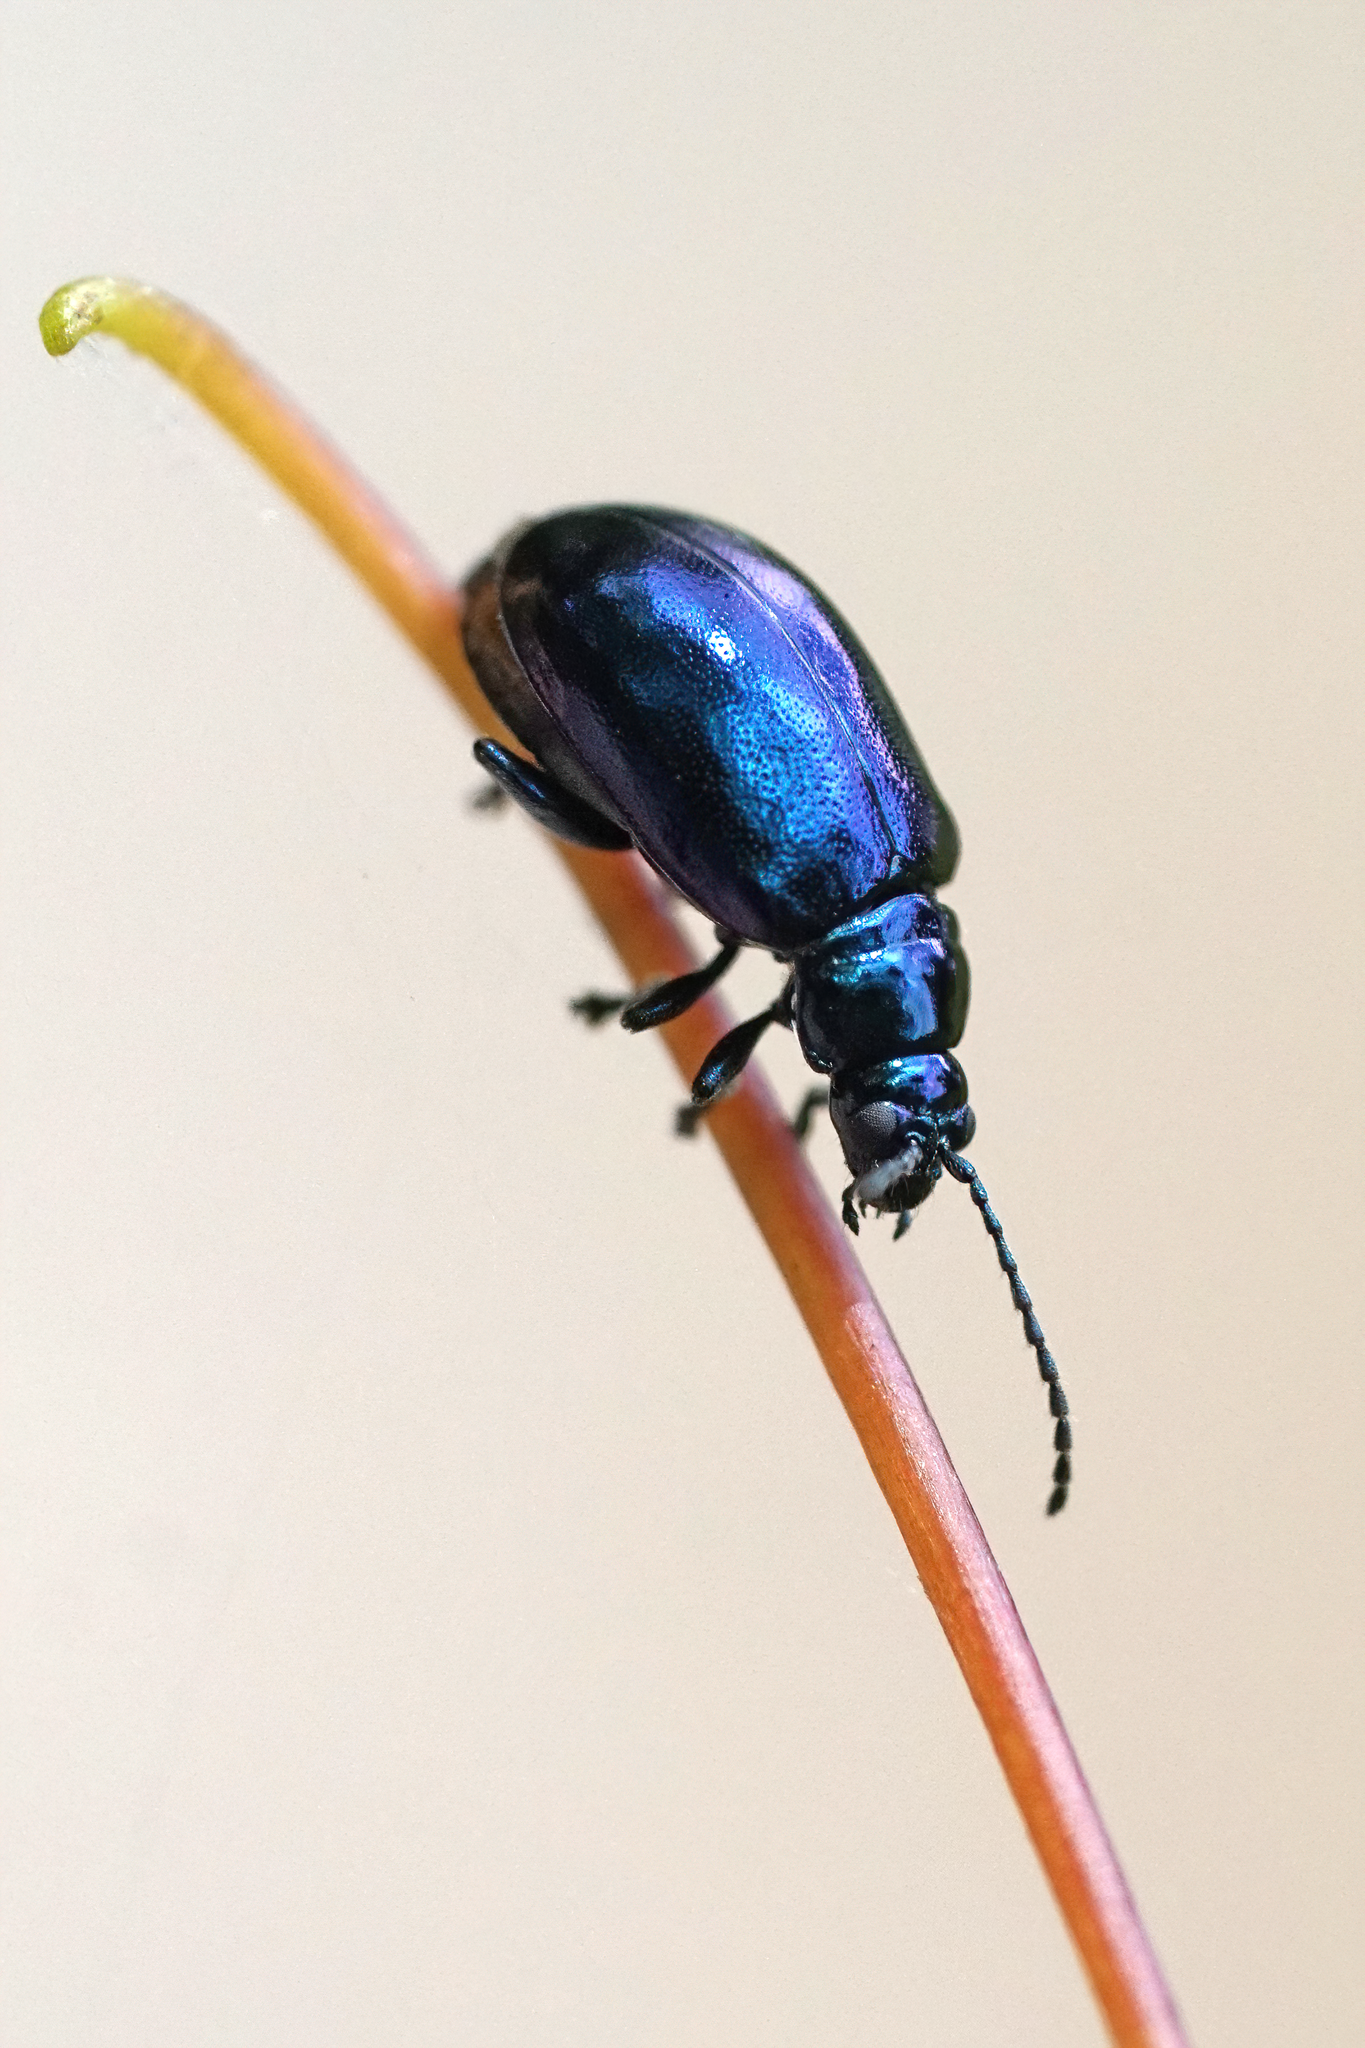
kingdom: Animalia
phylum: Arthropoda
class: Insecta
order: Coleoptera
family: Chrysomelidae
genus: Altica
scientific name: Altica chalybea
